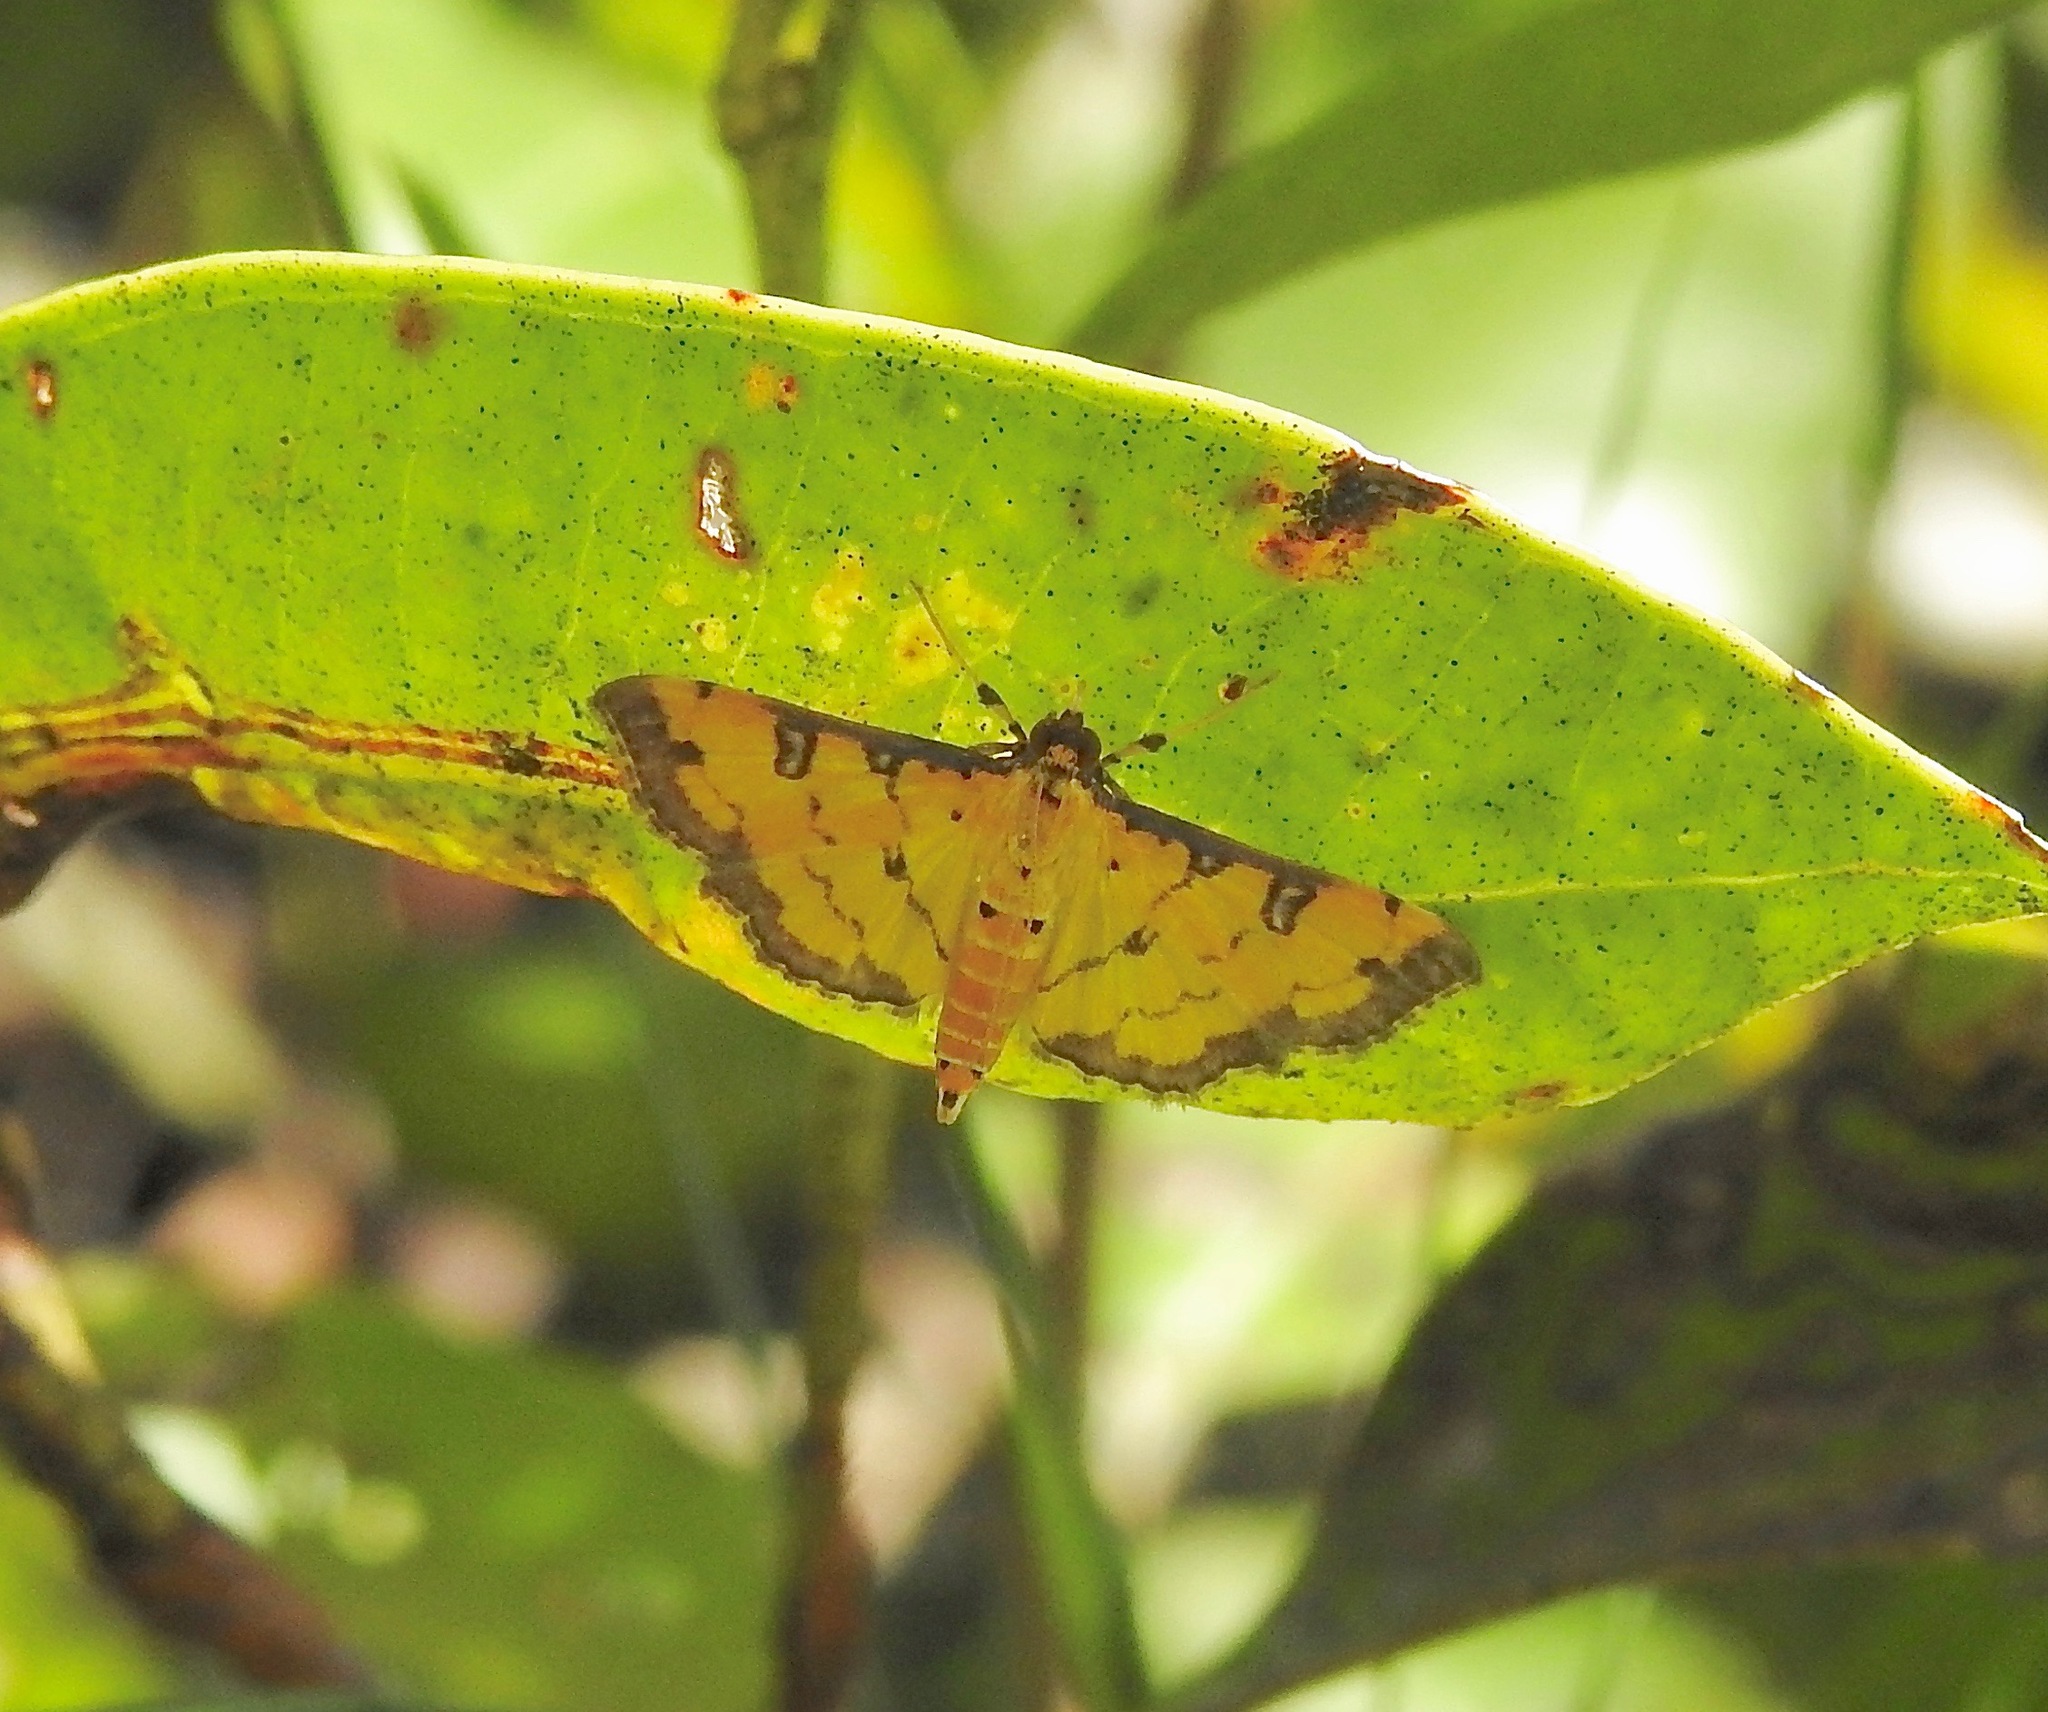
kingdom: Animalia
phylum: Arthropoda
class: Insecta
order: Lepidoptera
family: Crambidae
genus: Ategumia
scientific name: Ategumia ebulealis
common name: Moth
